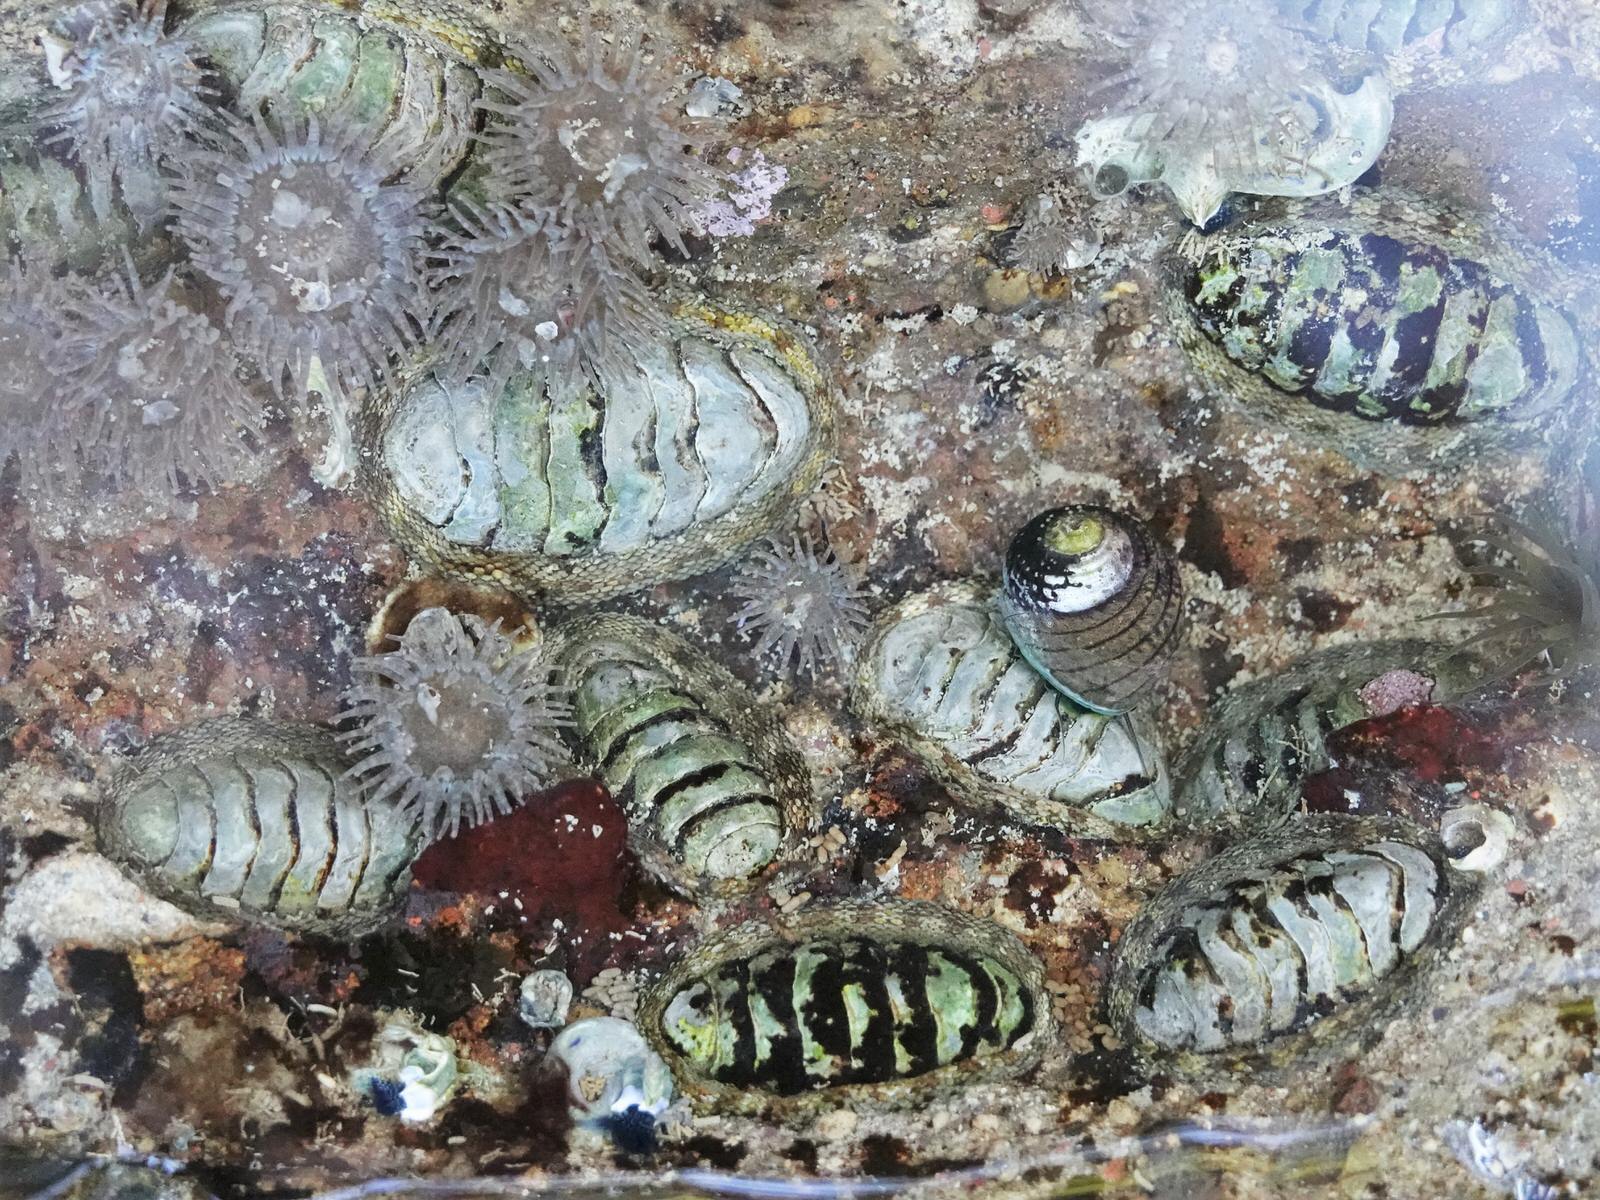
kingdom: Animalia
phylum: Mollusca
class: Polyplacophora
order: Chitonida
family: Chitonidae
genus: Sypharochiton
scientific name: Sypharochiton pelliserpentis
